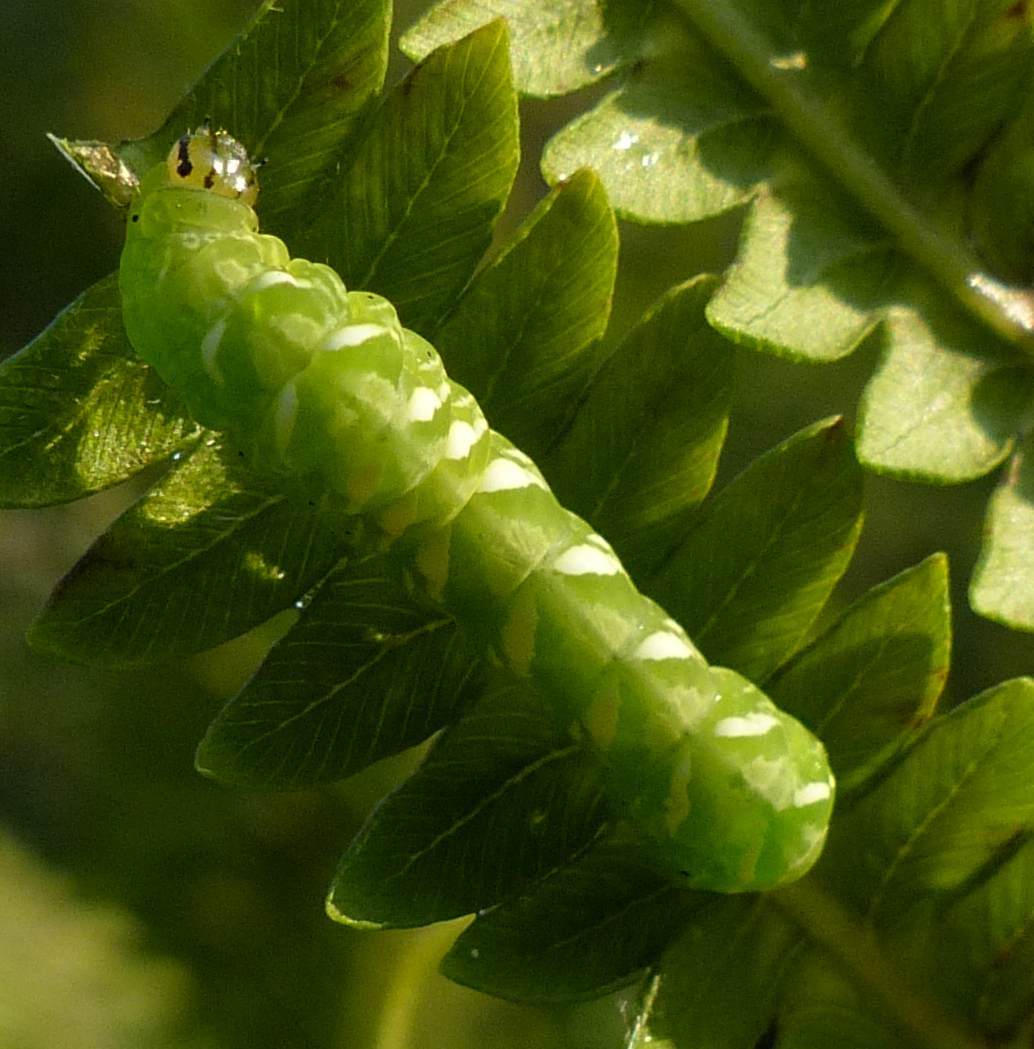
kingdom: Animalia
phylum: Arthropoda
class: Insecta
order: Lepidoptera
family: Noctuidae
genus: Callopistria
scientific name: Callopistria mollissima
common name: Pink-shaded fern moth
